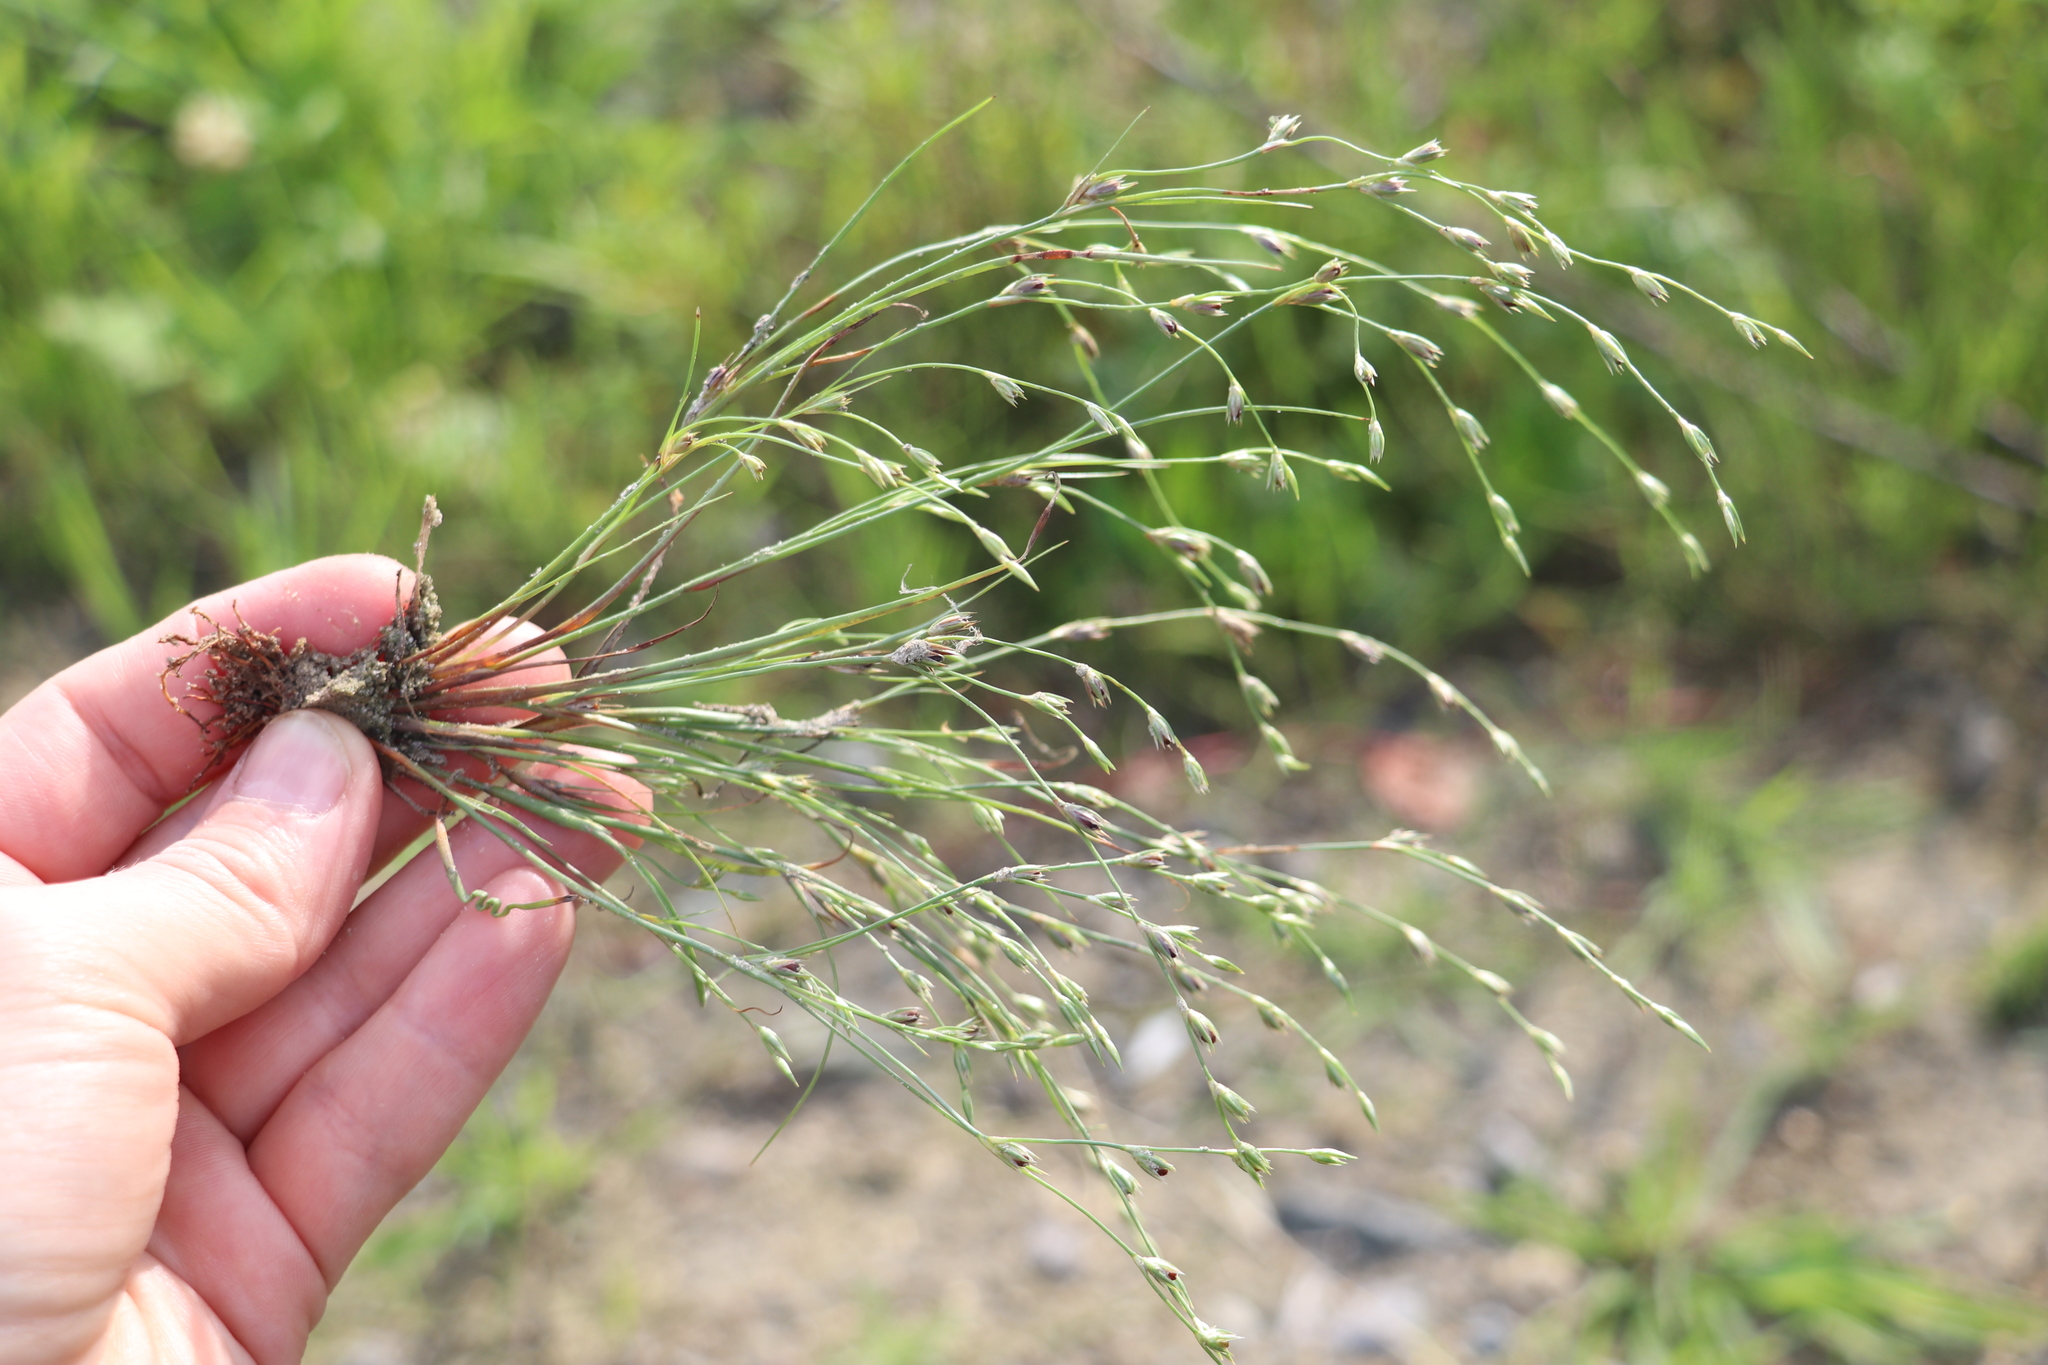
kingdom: Plantae
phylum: Tracheophyta
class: Liliopsida
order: Poales
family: Juncaceae
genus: Juncus
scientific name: Juncus bufonius
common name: Toad rush
